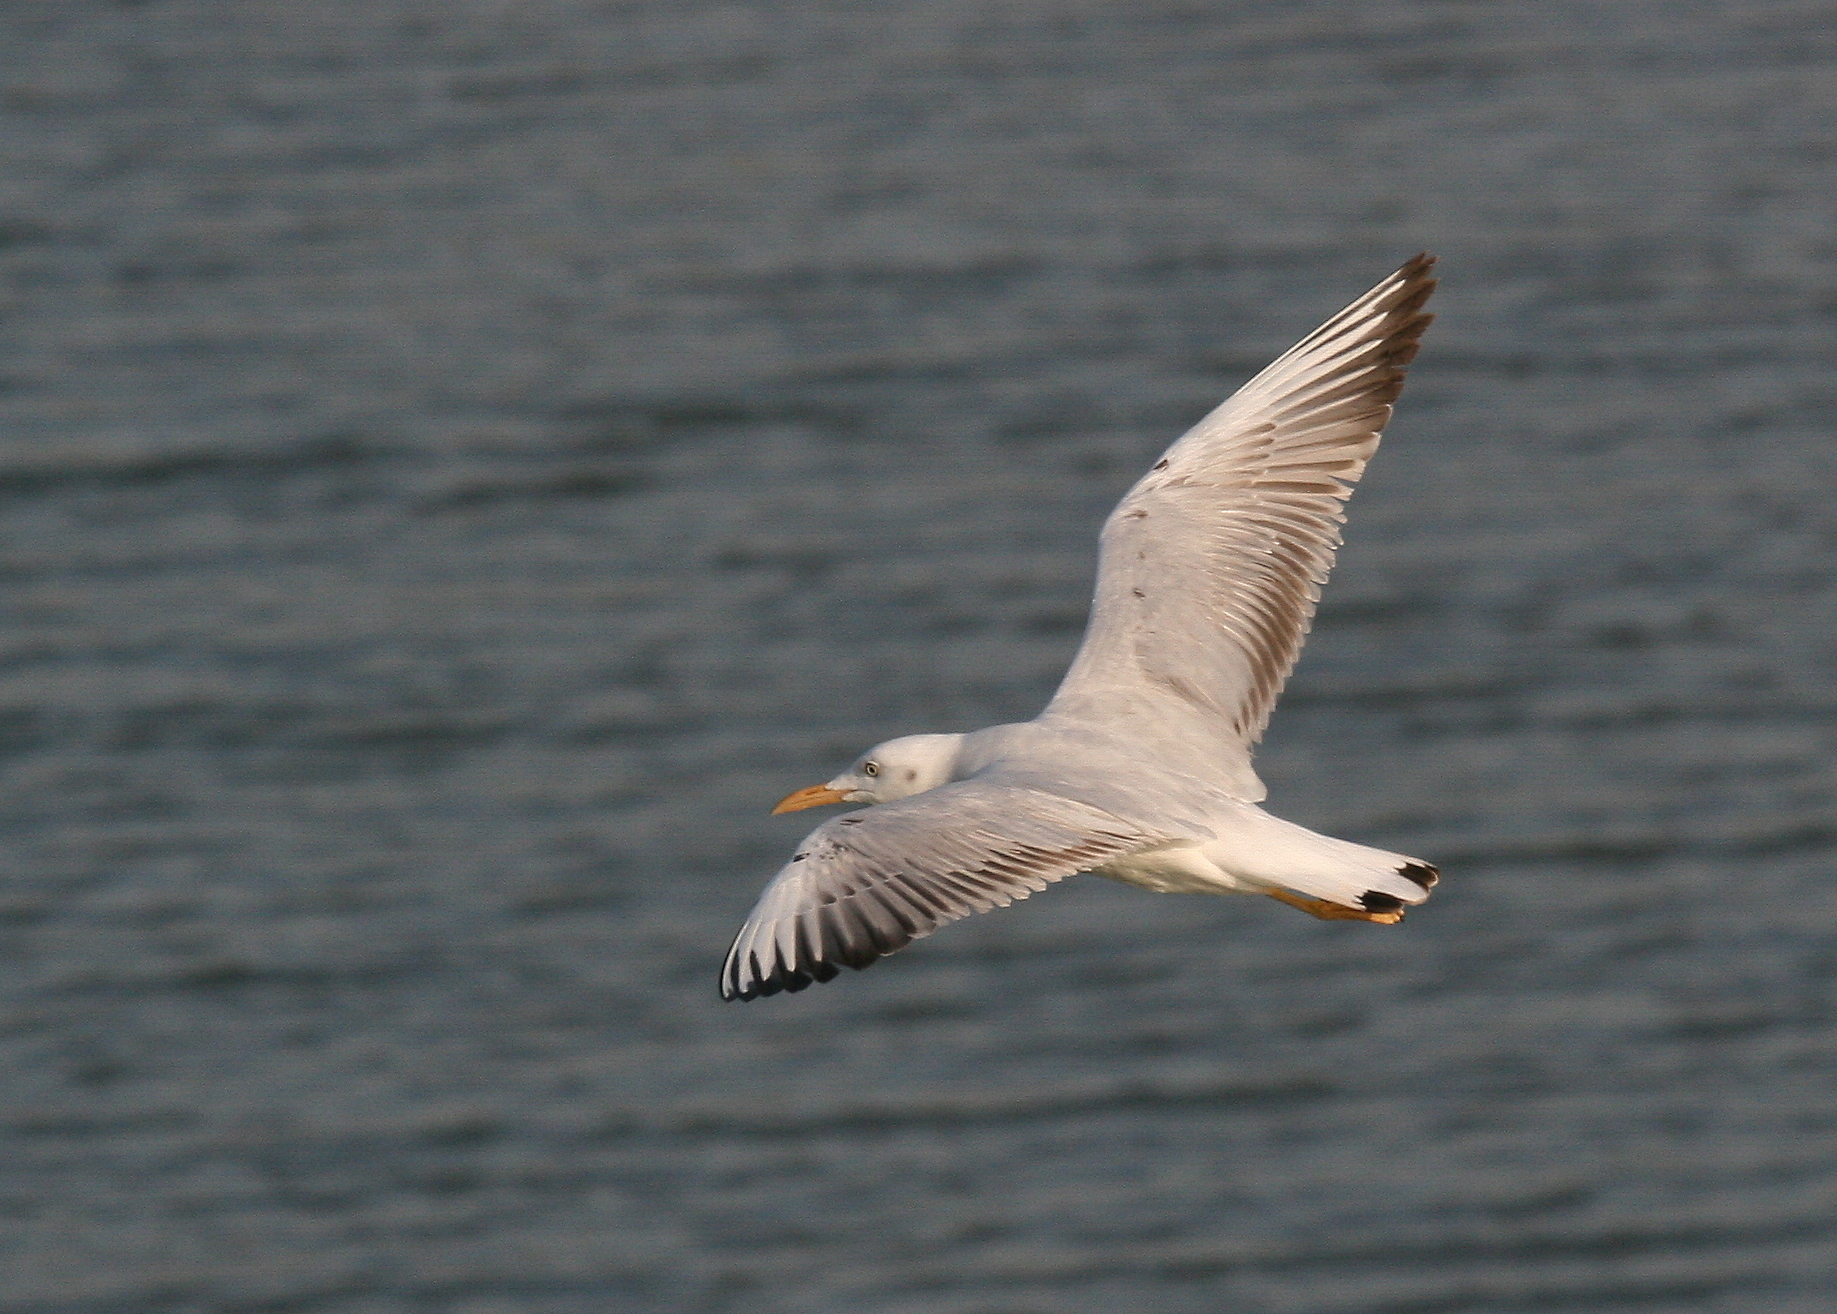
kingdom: Animalia
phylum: Chordata
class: Aves
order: Charadriiformes
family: Laridae
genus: Chroicocephalus
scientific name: Chroicocephalus genei
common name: Slender-billed gull
